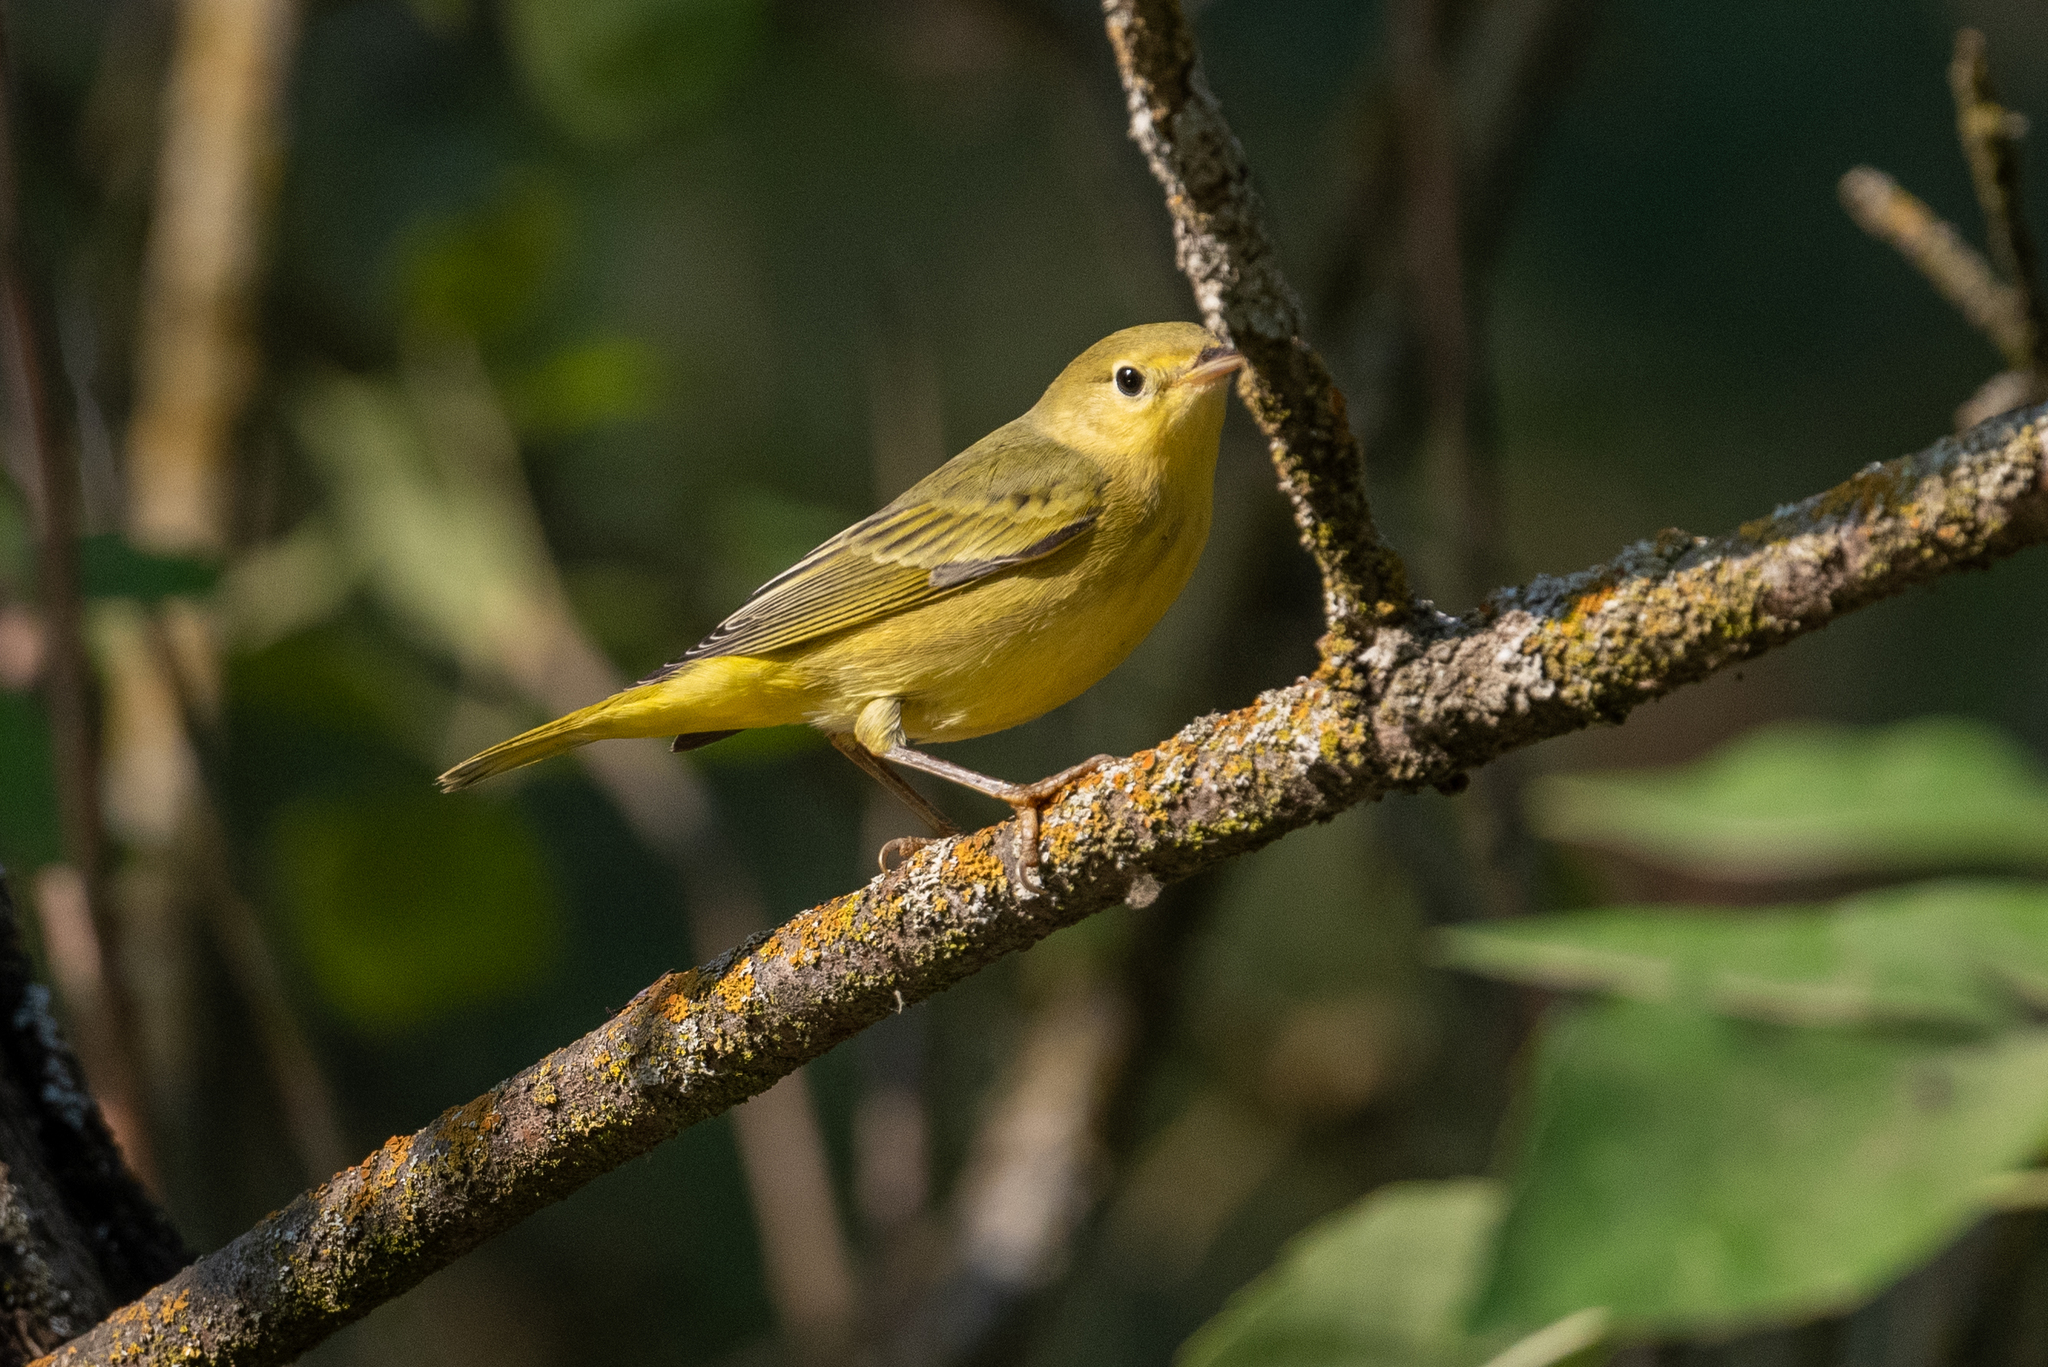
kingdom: Animalia
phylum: Chordata
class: Aves
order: Passeriformes
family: Parulidae
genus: Setophaga
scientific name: Setophaga petechia
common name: Yellow warbler
